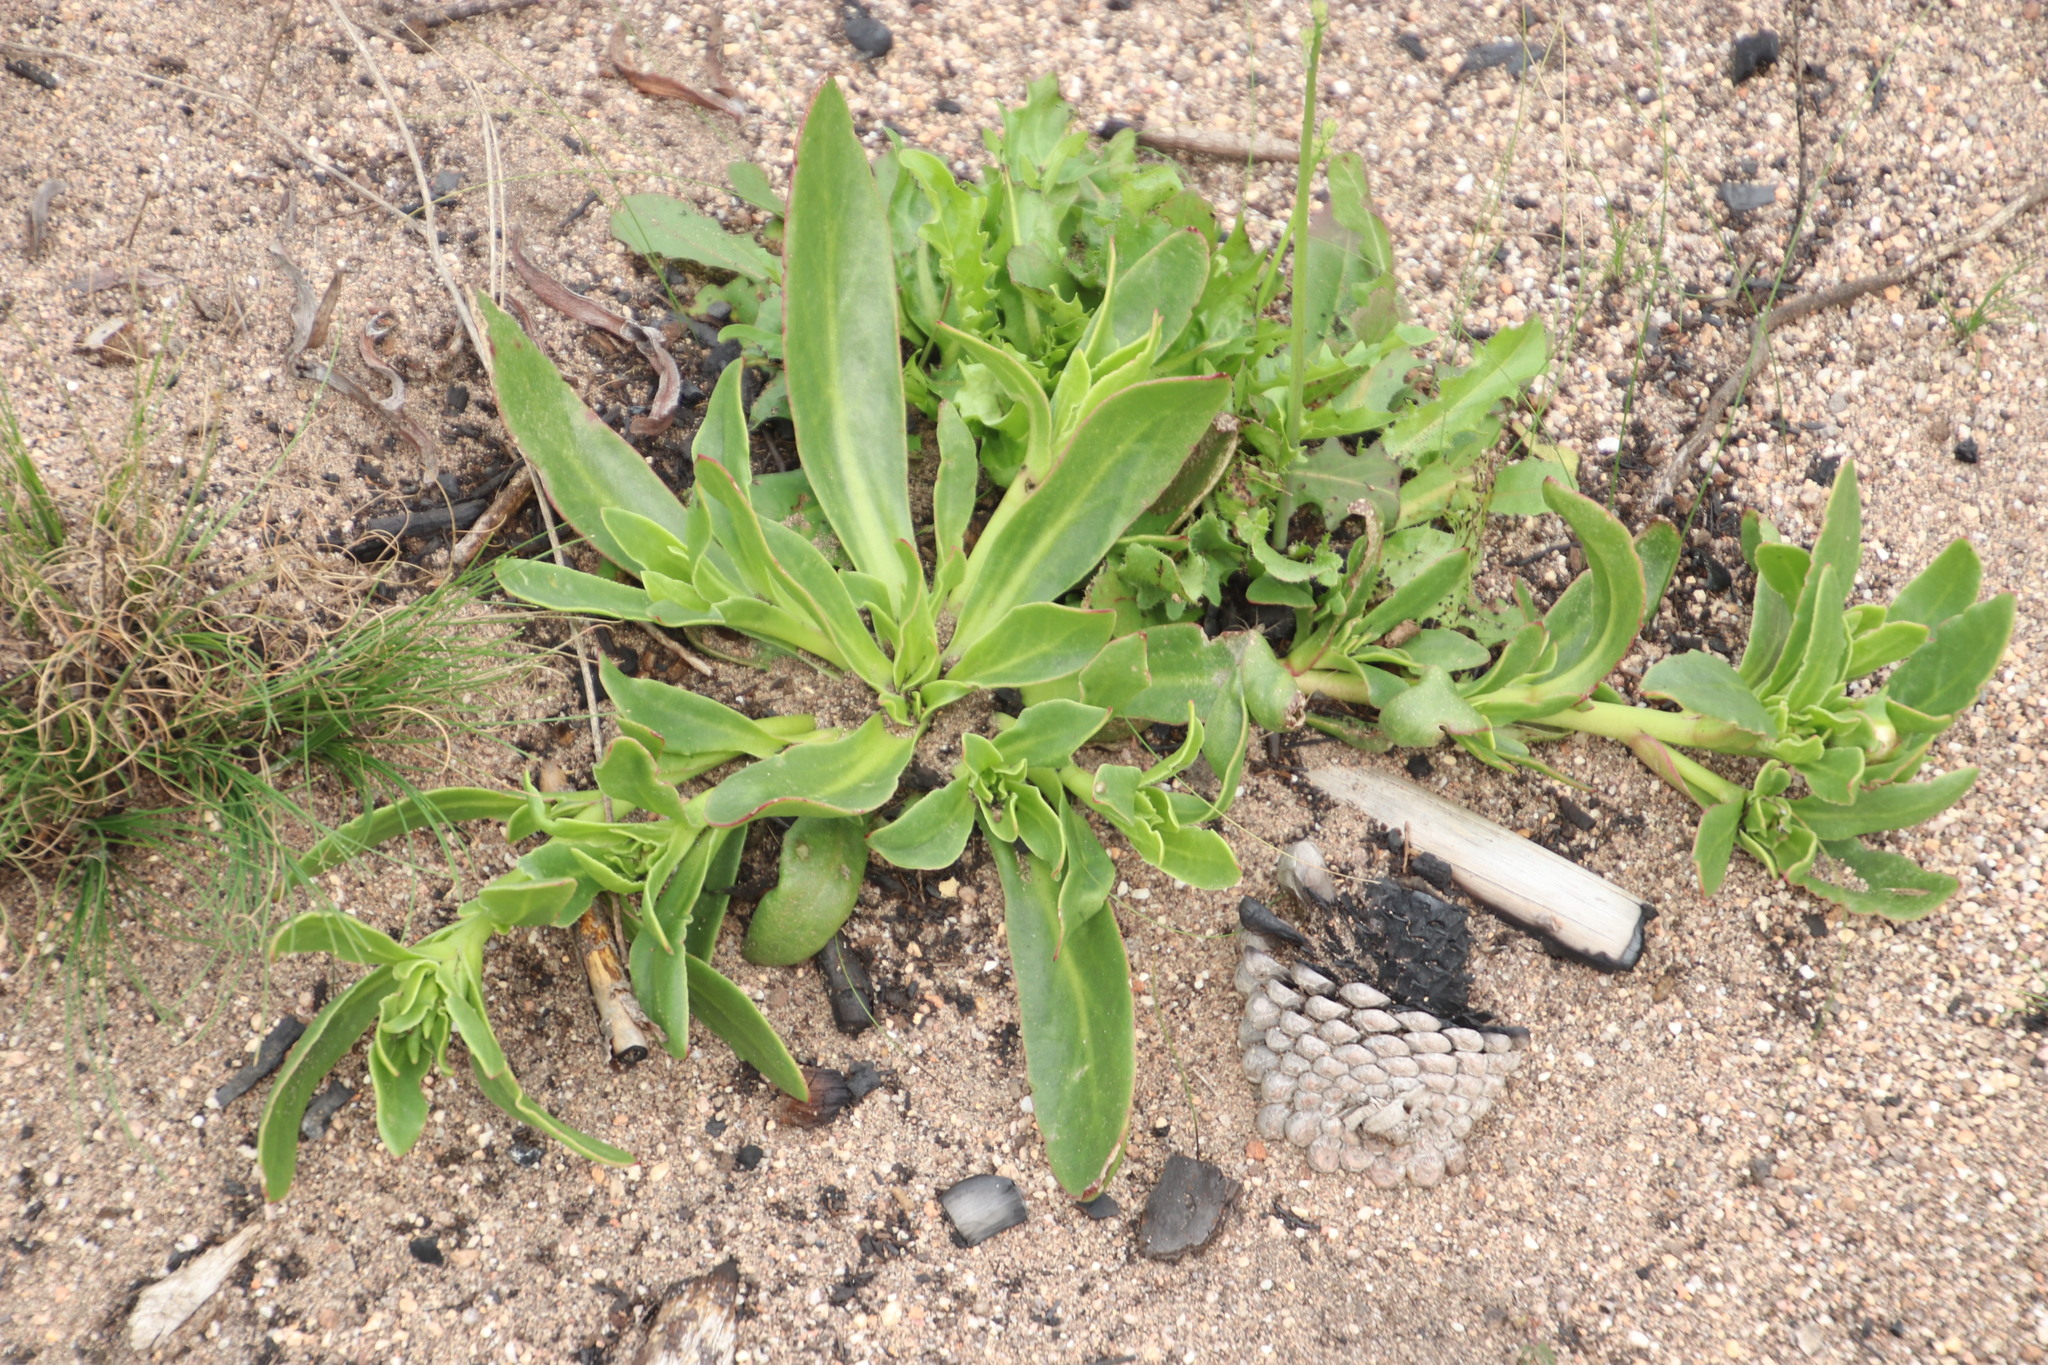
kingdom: Plantae
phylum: Tracheophyta
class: Magnoliopsida
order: Caryophyllales
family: Aizoaceae
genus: Skiatophytum
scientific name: Skiatophytum tripolium
